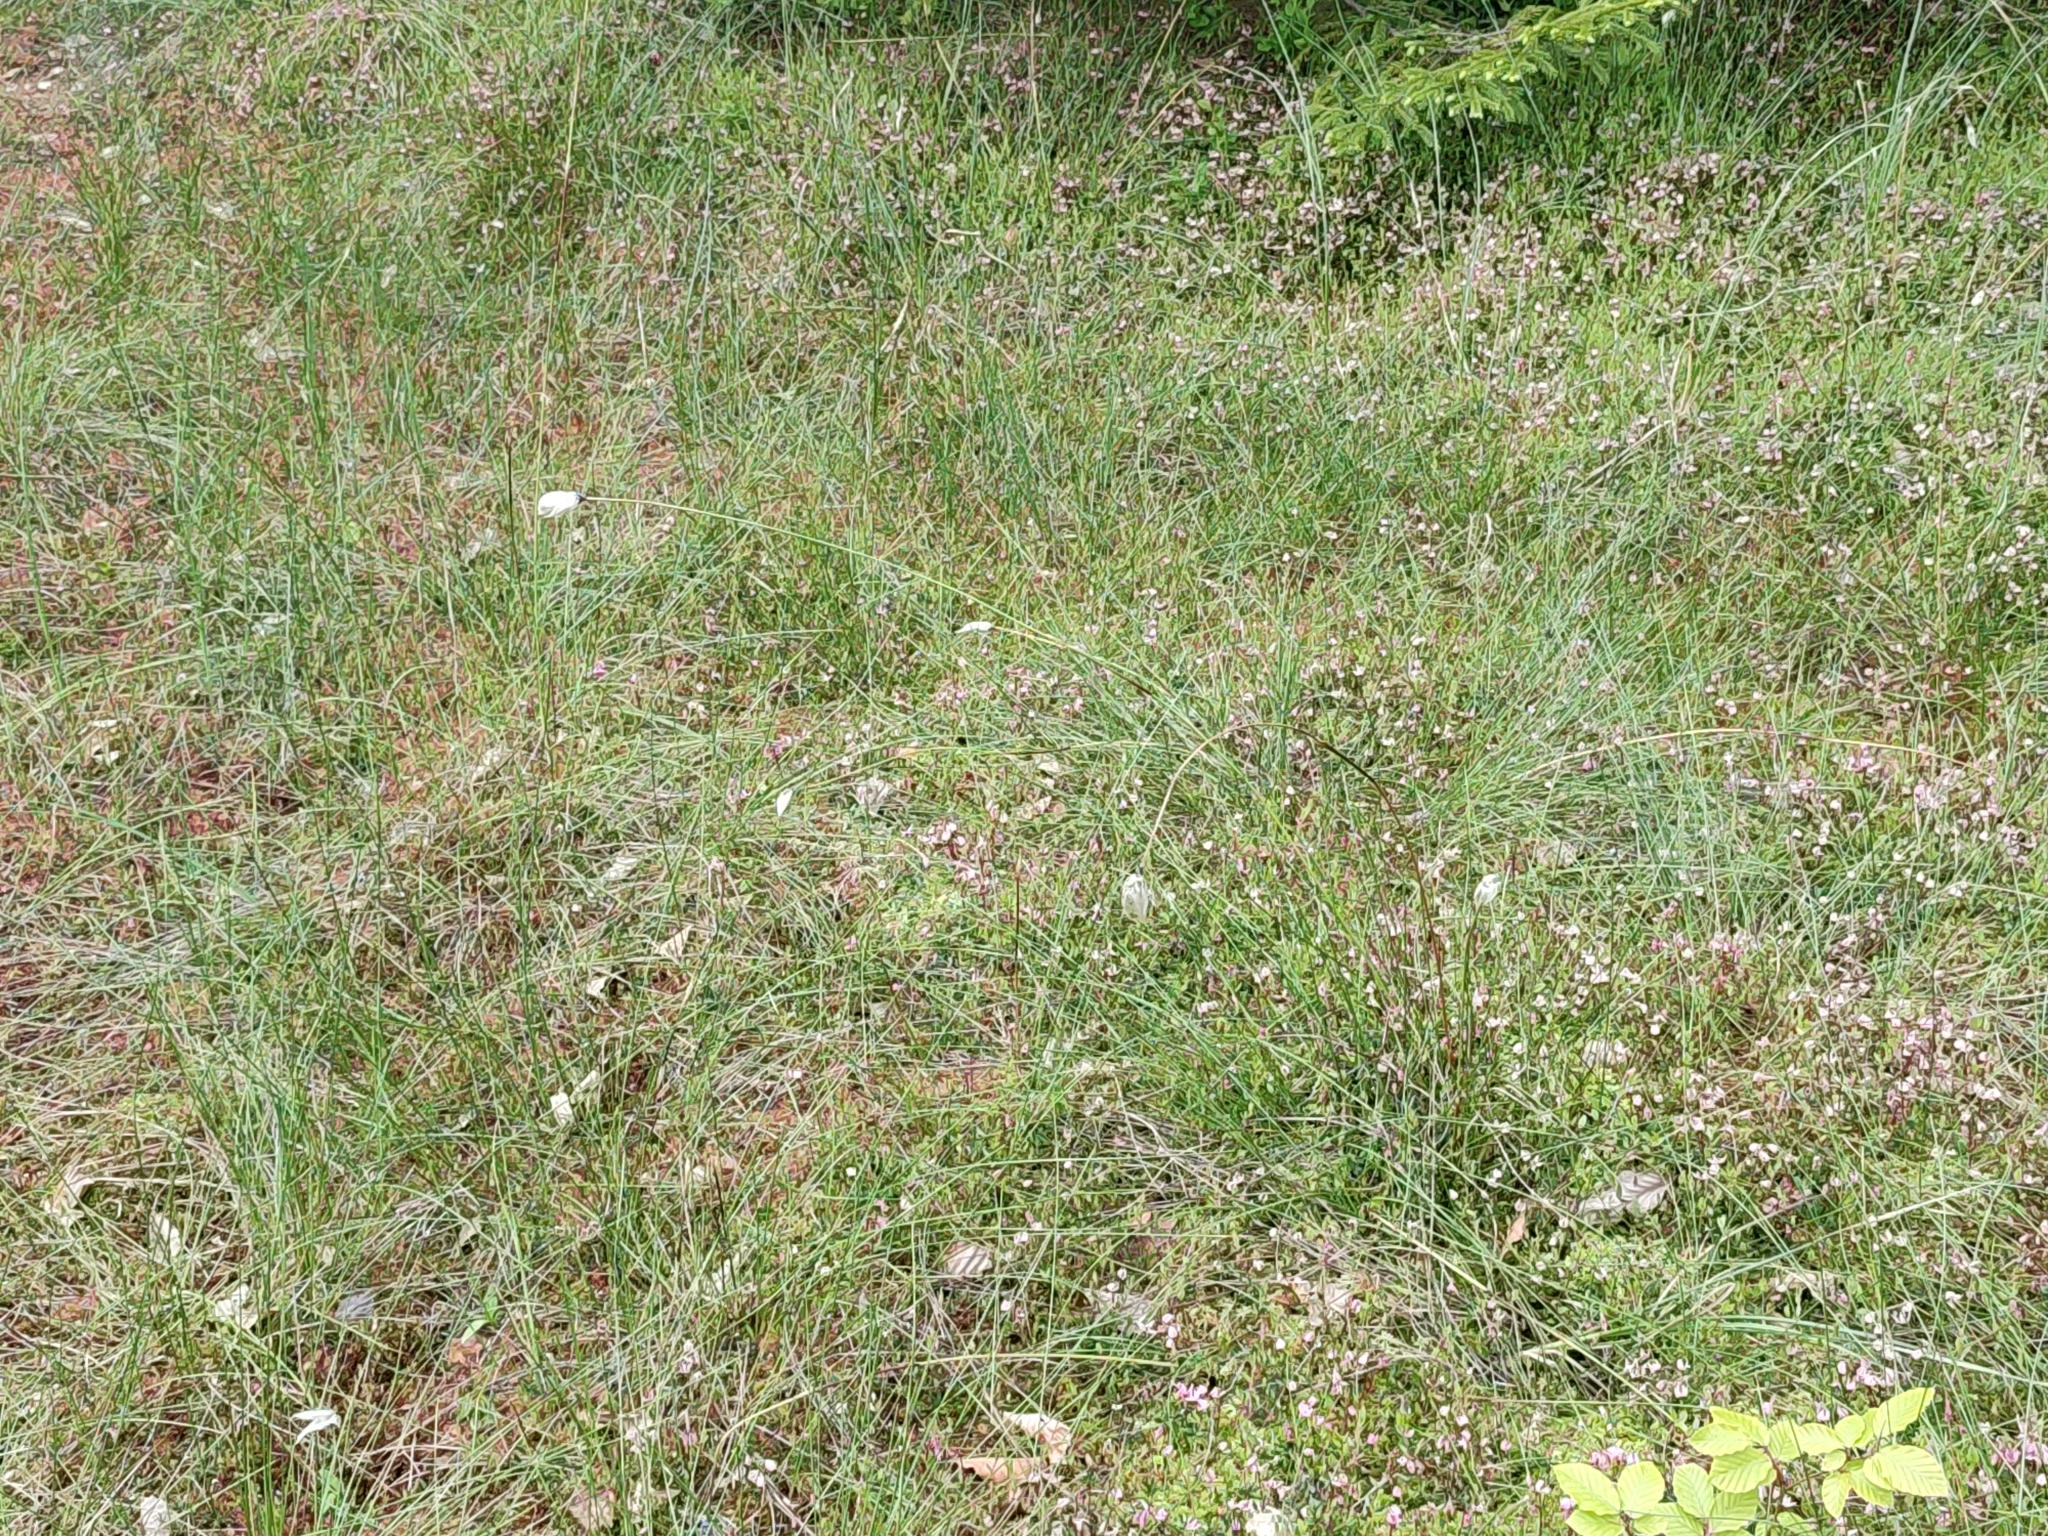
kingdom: Plantae
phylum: Tracheophyta
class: Liliopsida
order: Poales
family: Cyperaceae
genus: Eriophorum
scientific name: Eriophorum vaginatum
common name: Hare's-tail cottongrass
